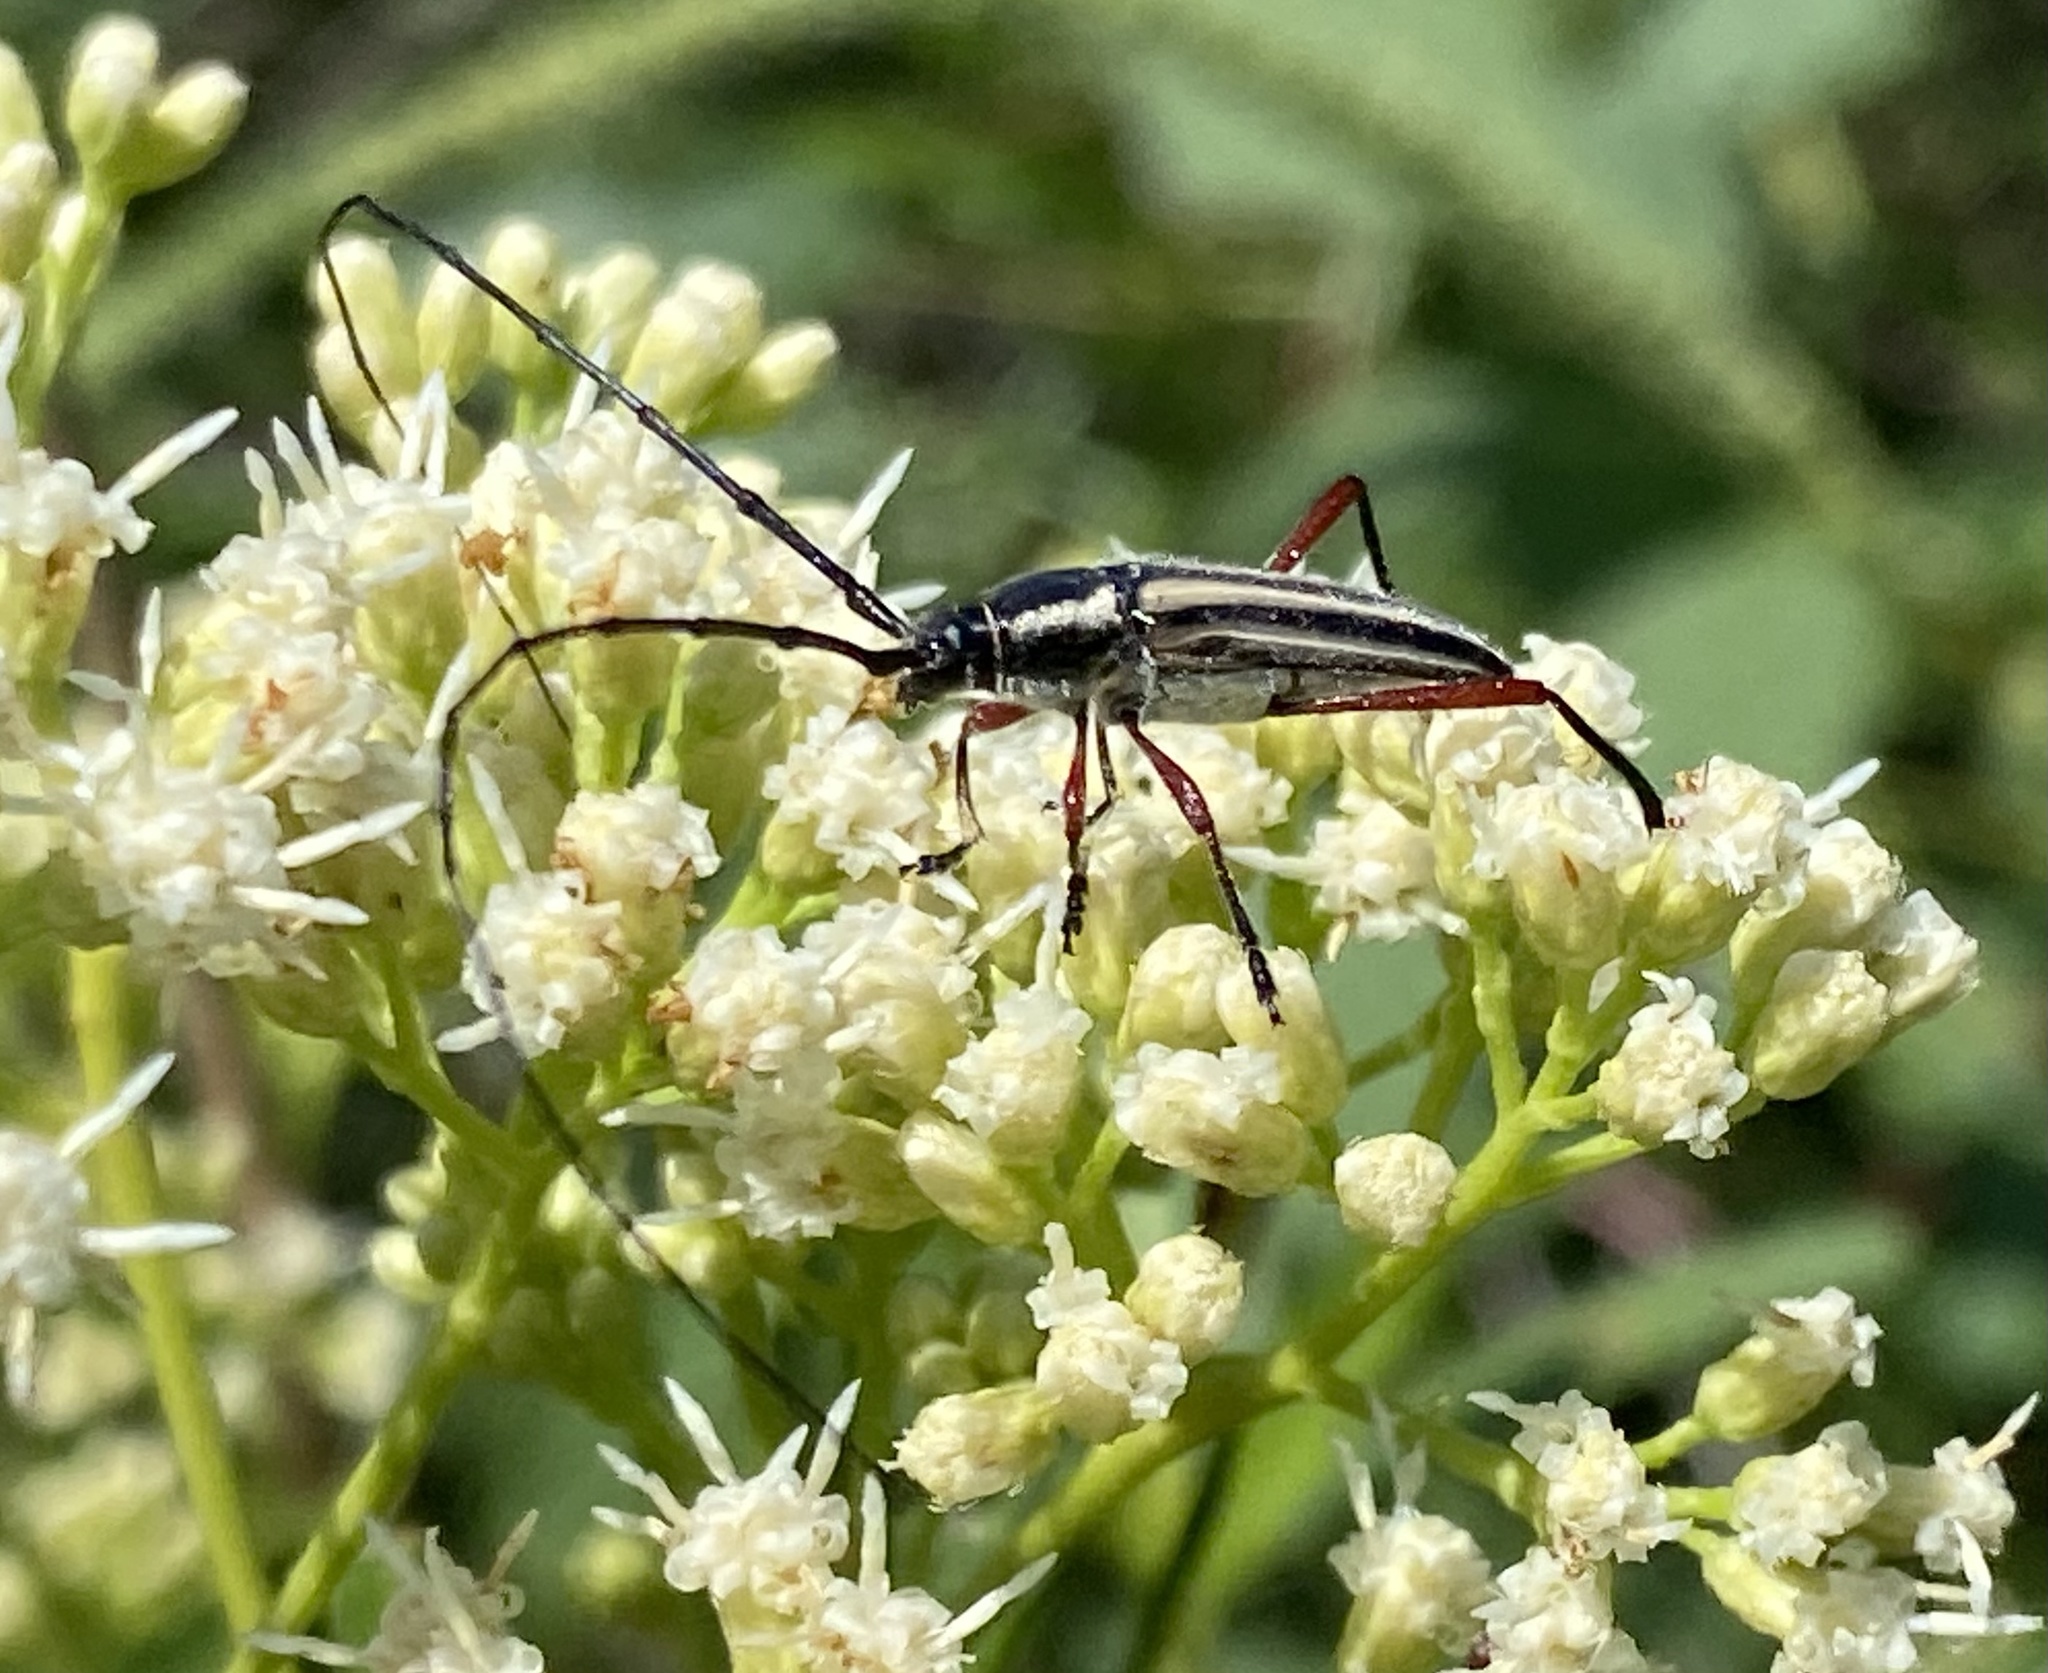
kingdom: Animalia
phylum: Arthropoda
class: Insecta
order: Coleoptera
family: Cerambycidae
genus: Sphaenothecus
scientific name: Sphaenothecus bilineatus
